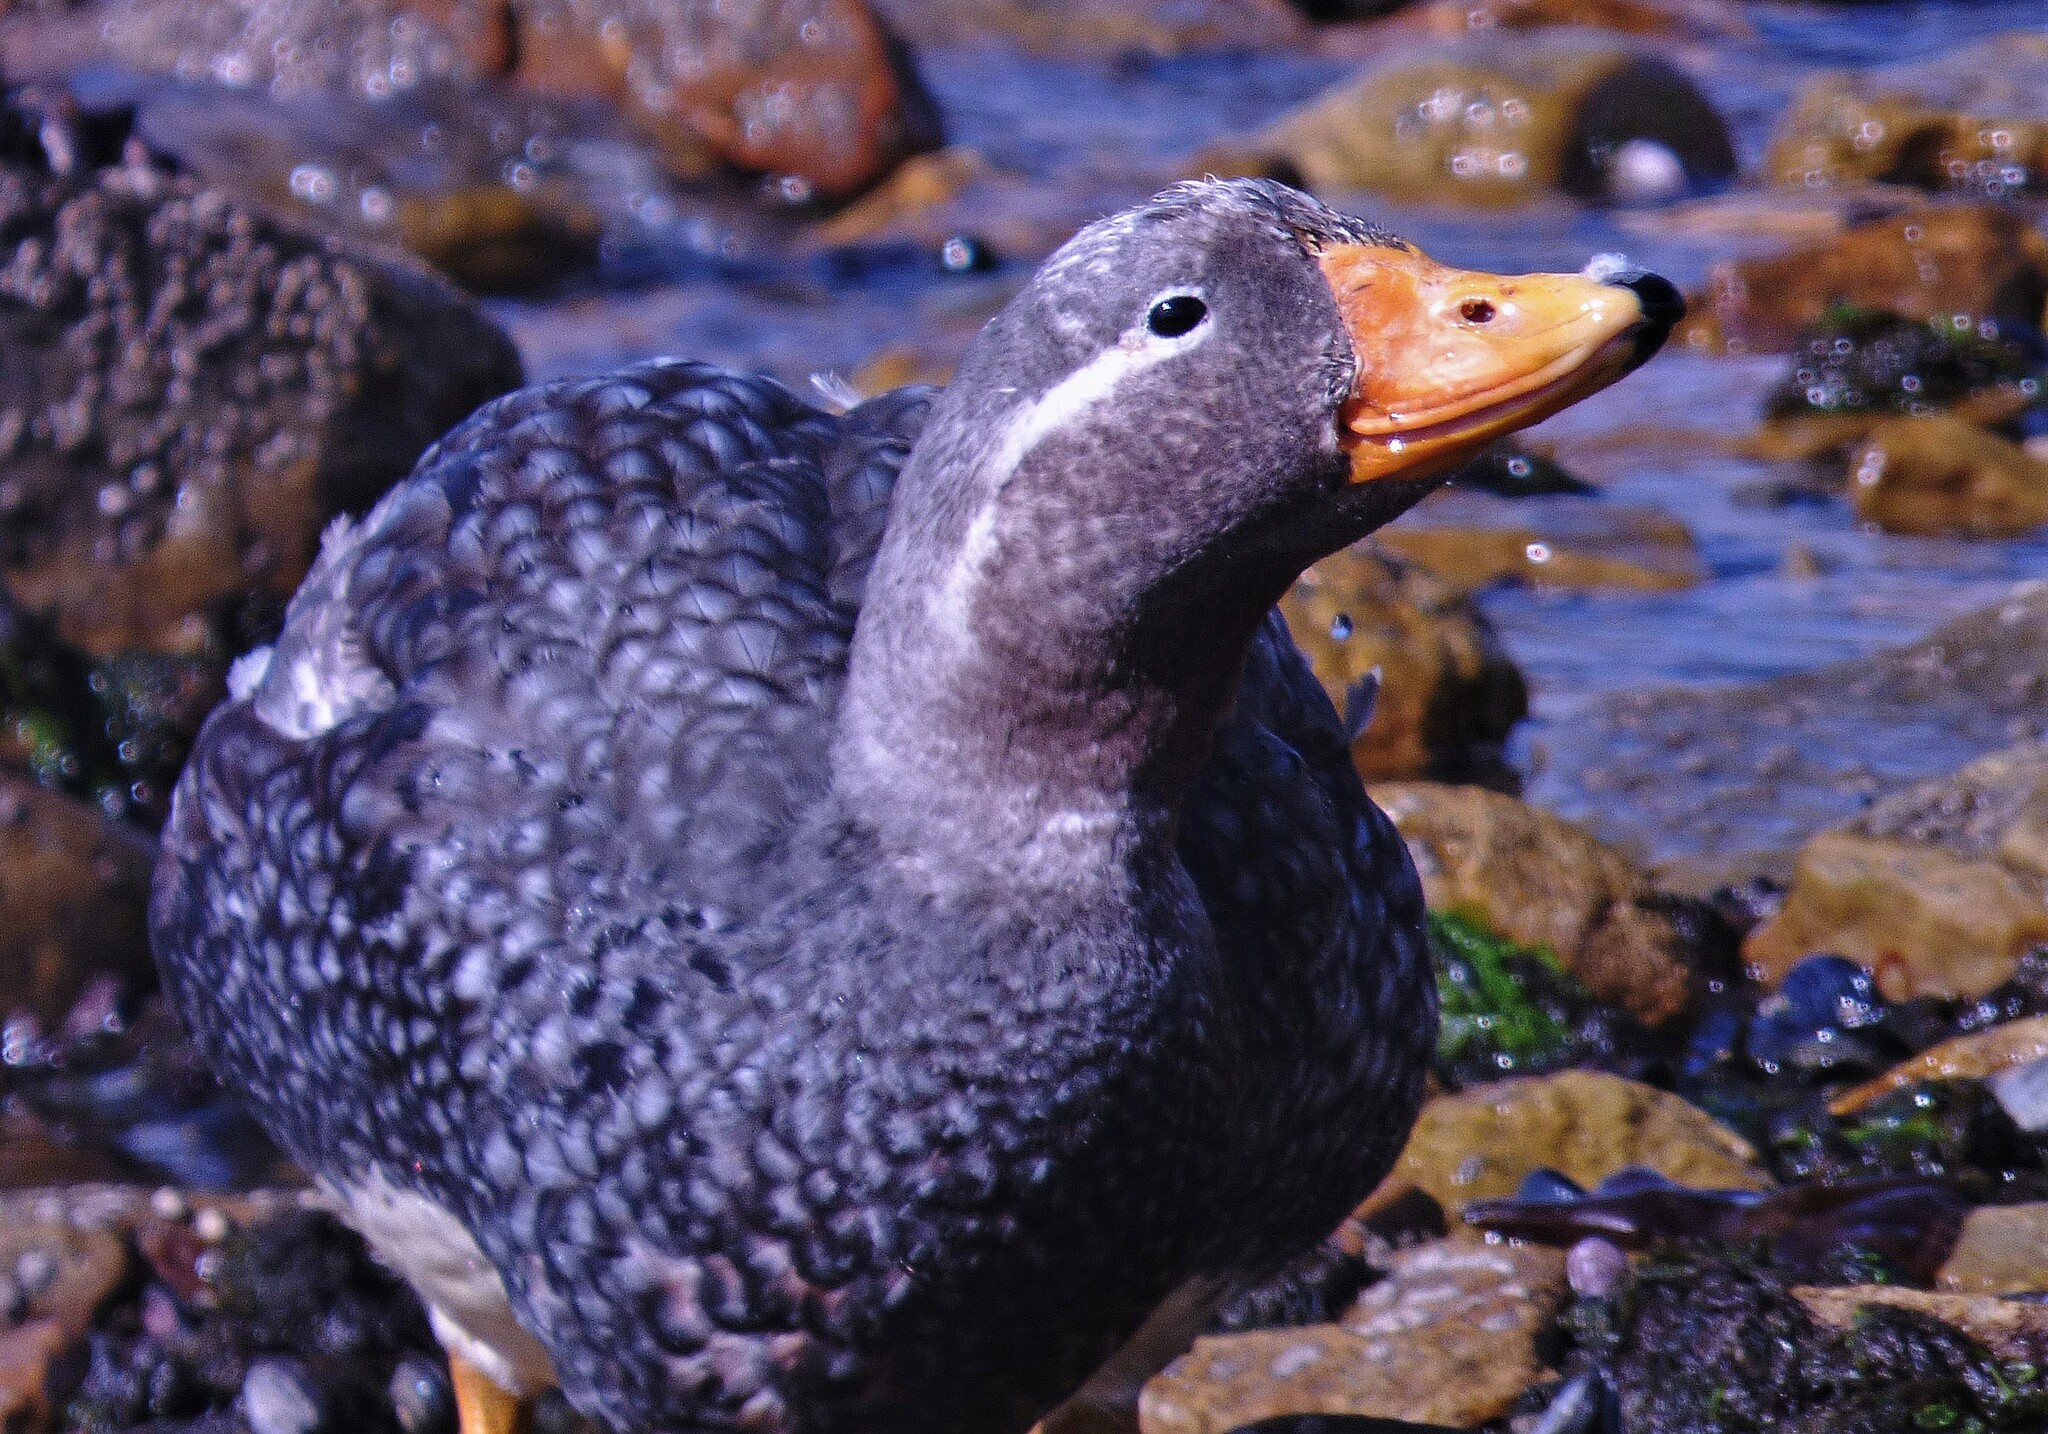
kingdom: Animalia
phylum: Chordata
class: Aves
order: Anseriformes
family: Anatidae
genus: Tachyeres
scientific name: Tachyeres brachypterus
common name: Falkland steamer duck
